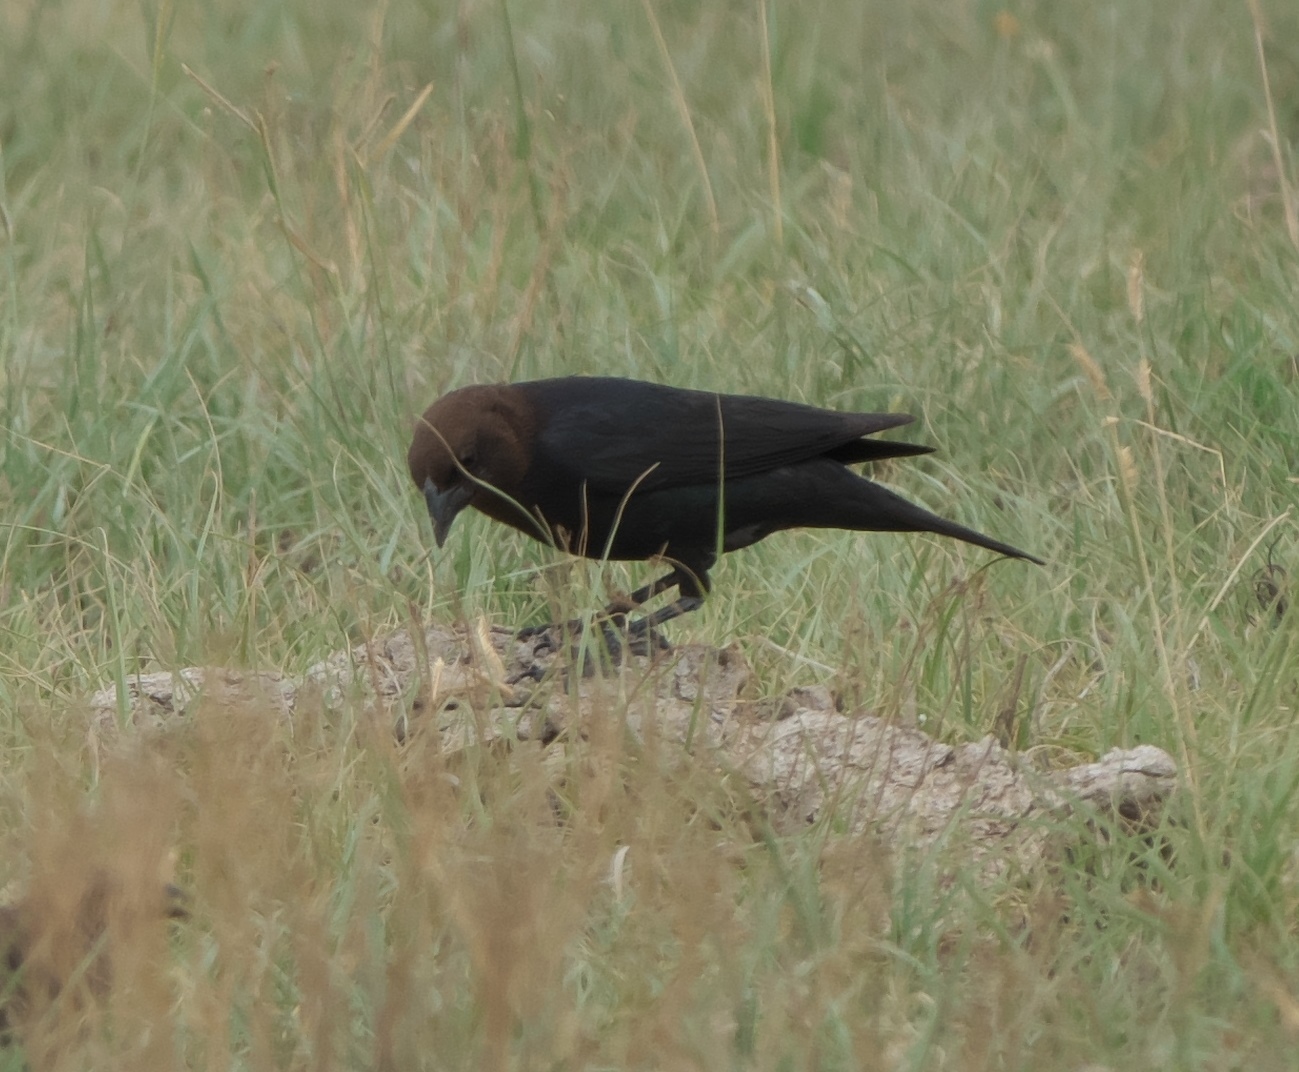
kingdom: Animalia
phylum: Chordata
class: Aves
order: Passeriformes
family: Icteridae
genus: Molothrus
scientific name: Molothrus ater
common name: Brown-headed cowbird
